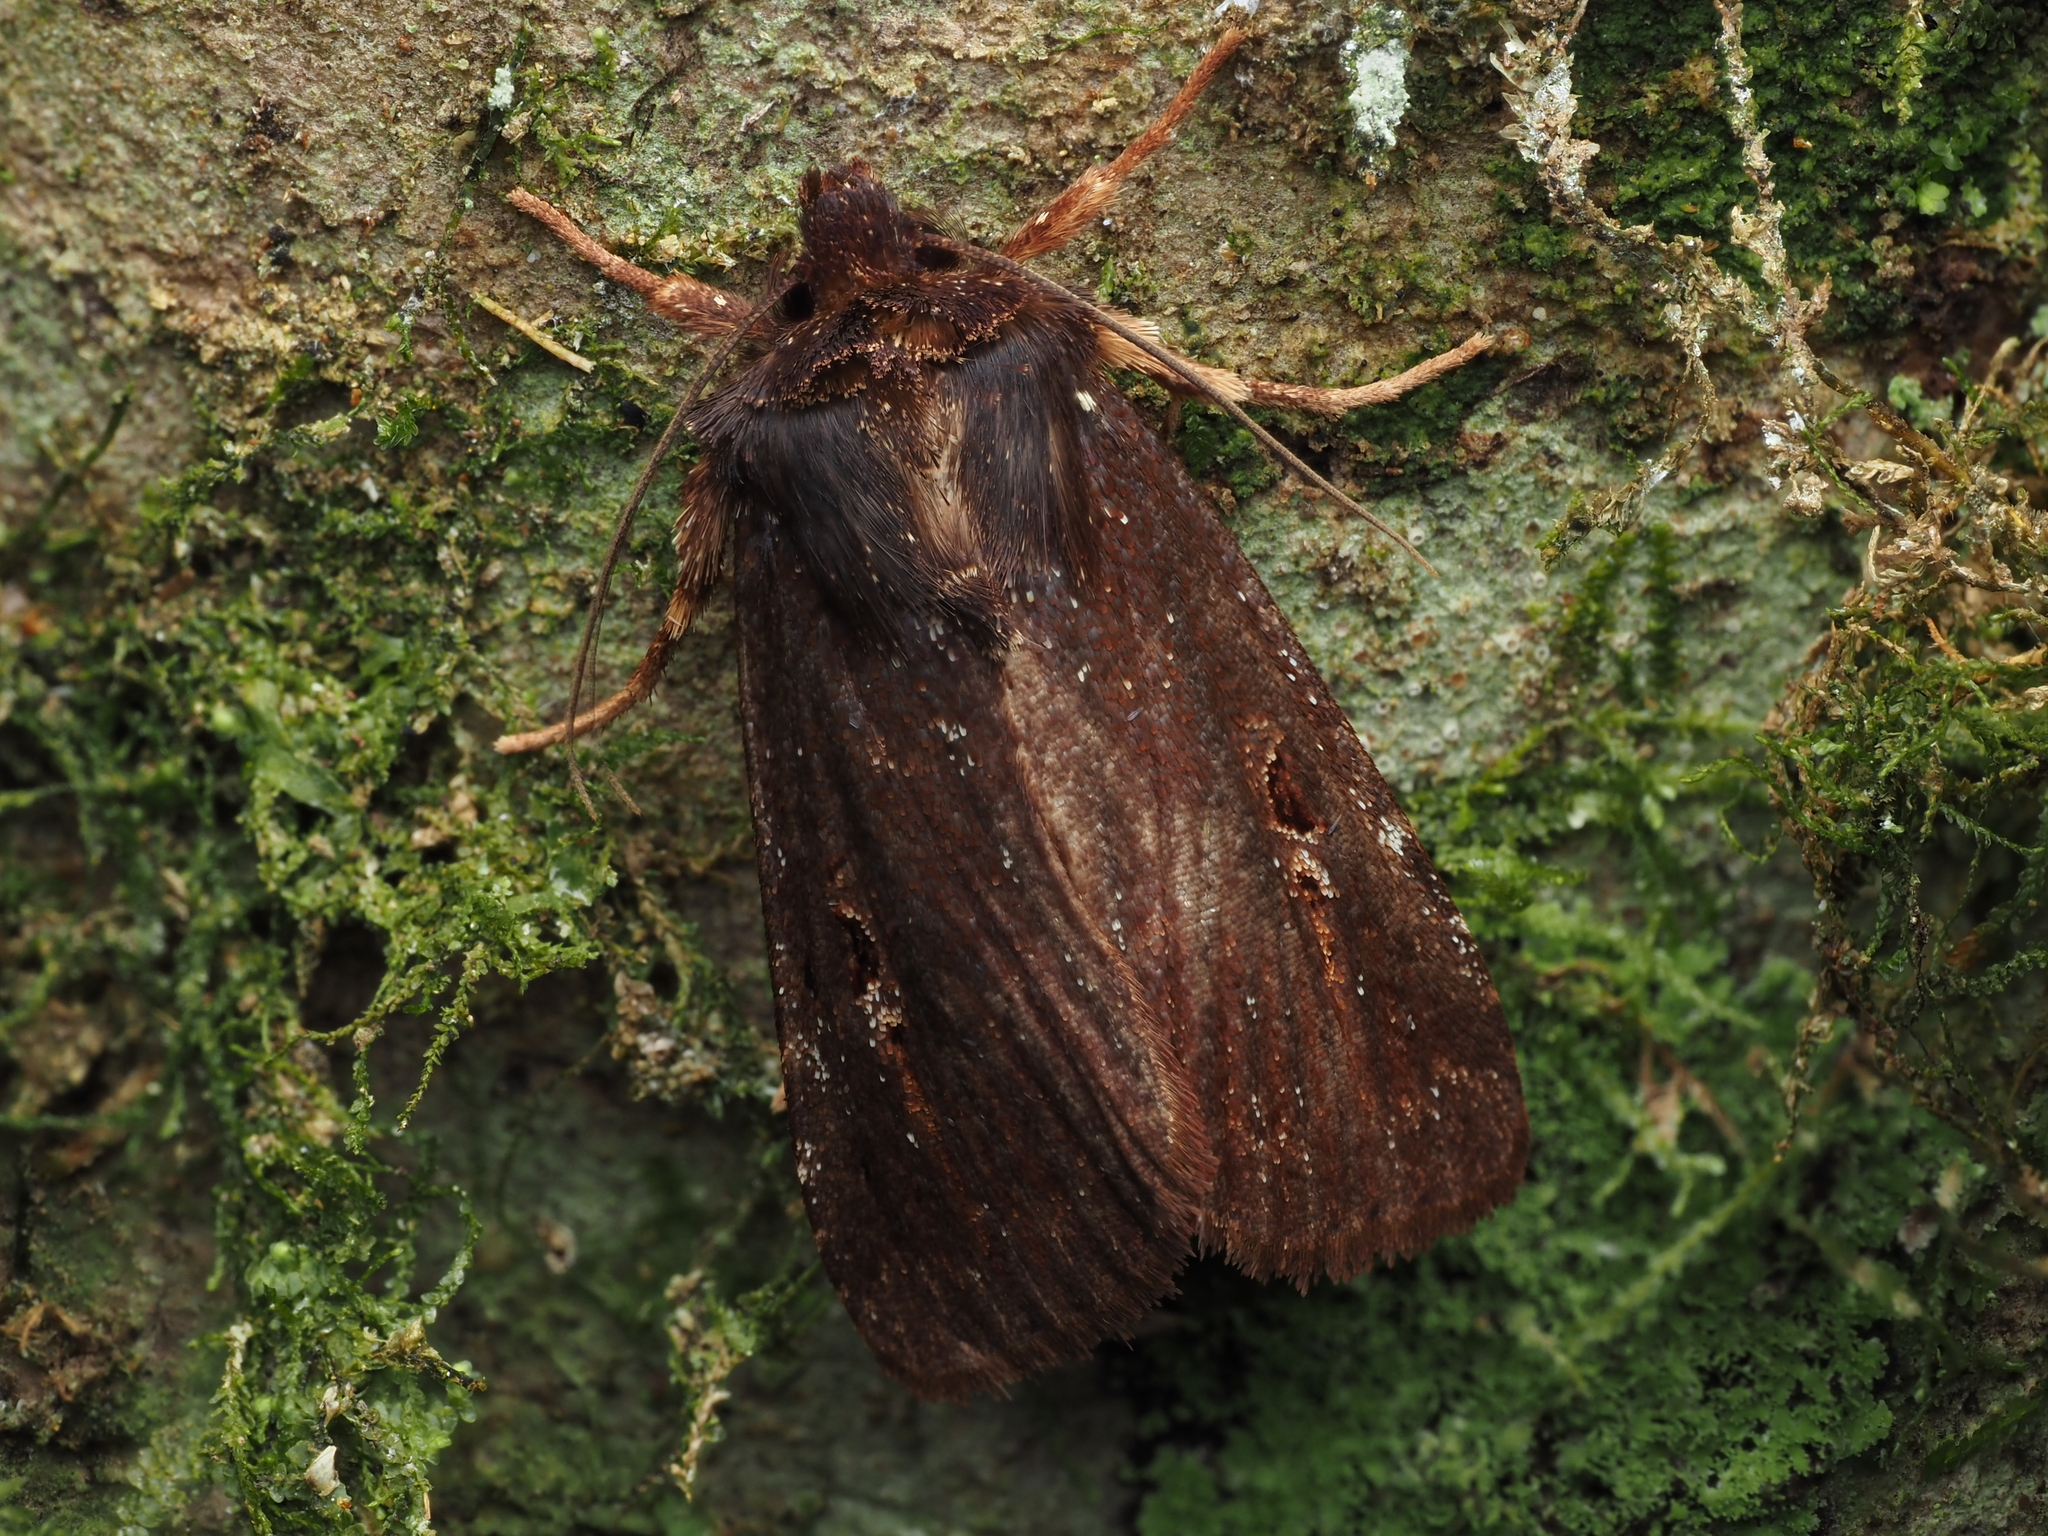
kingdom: Animalia
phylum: Arthropoda
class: Insecta
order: Lepidoptera
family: Noctuidae
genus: Austramathes
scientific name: Austramathes purpurea
